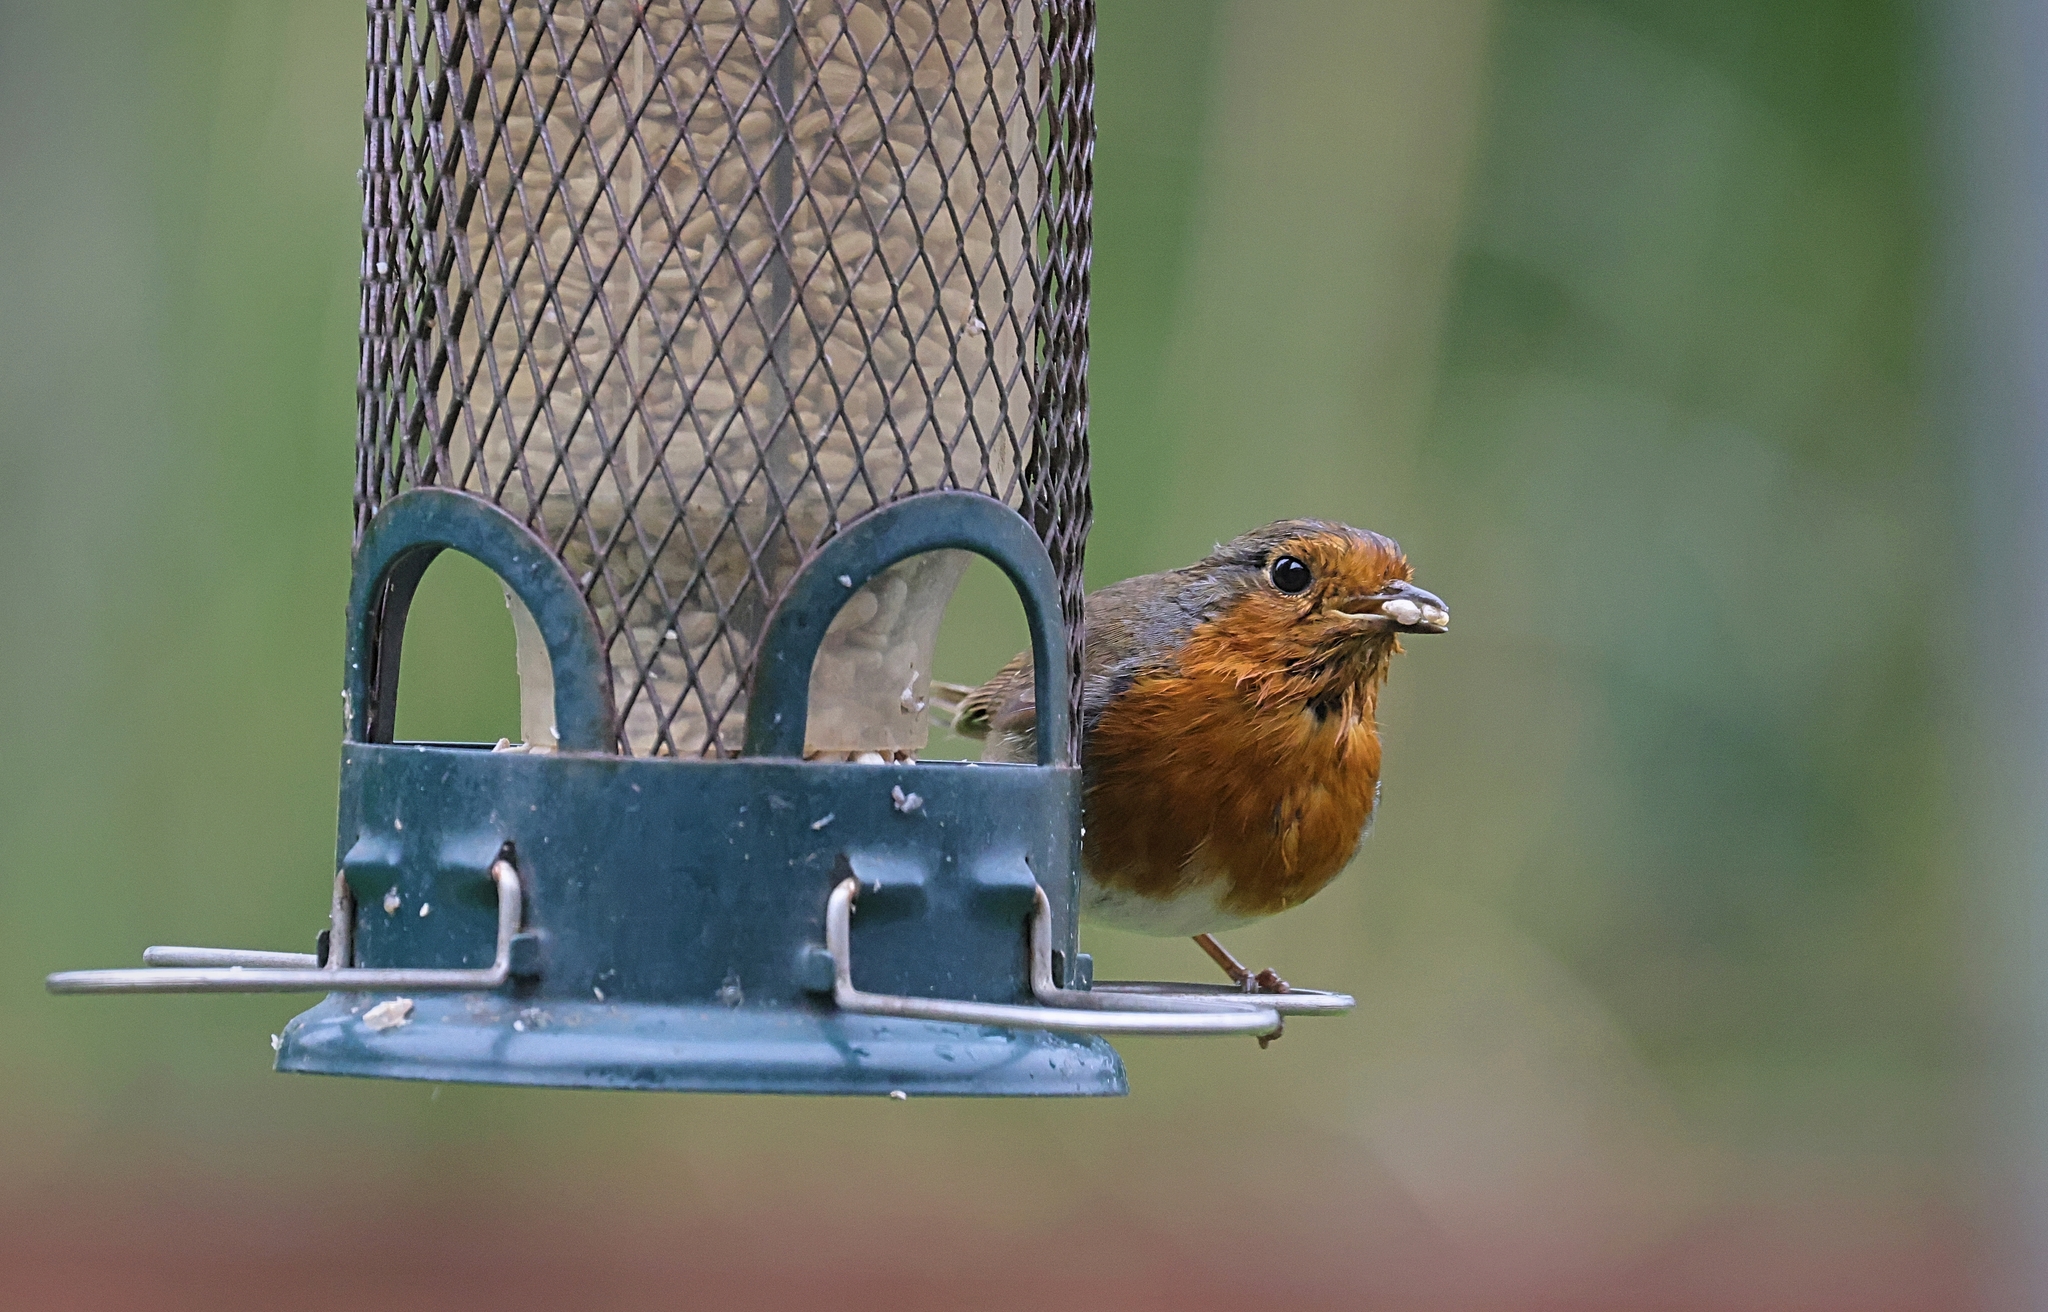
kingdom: Animalia
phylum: Chordata
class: Aves
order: Passeriformes
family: Muscicapidae
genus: Erithacus
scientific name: Erithacus rubecula
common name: European robin
